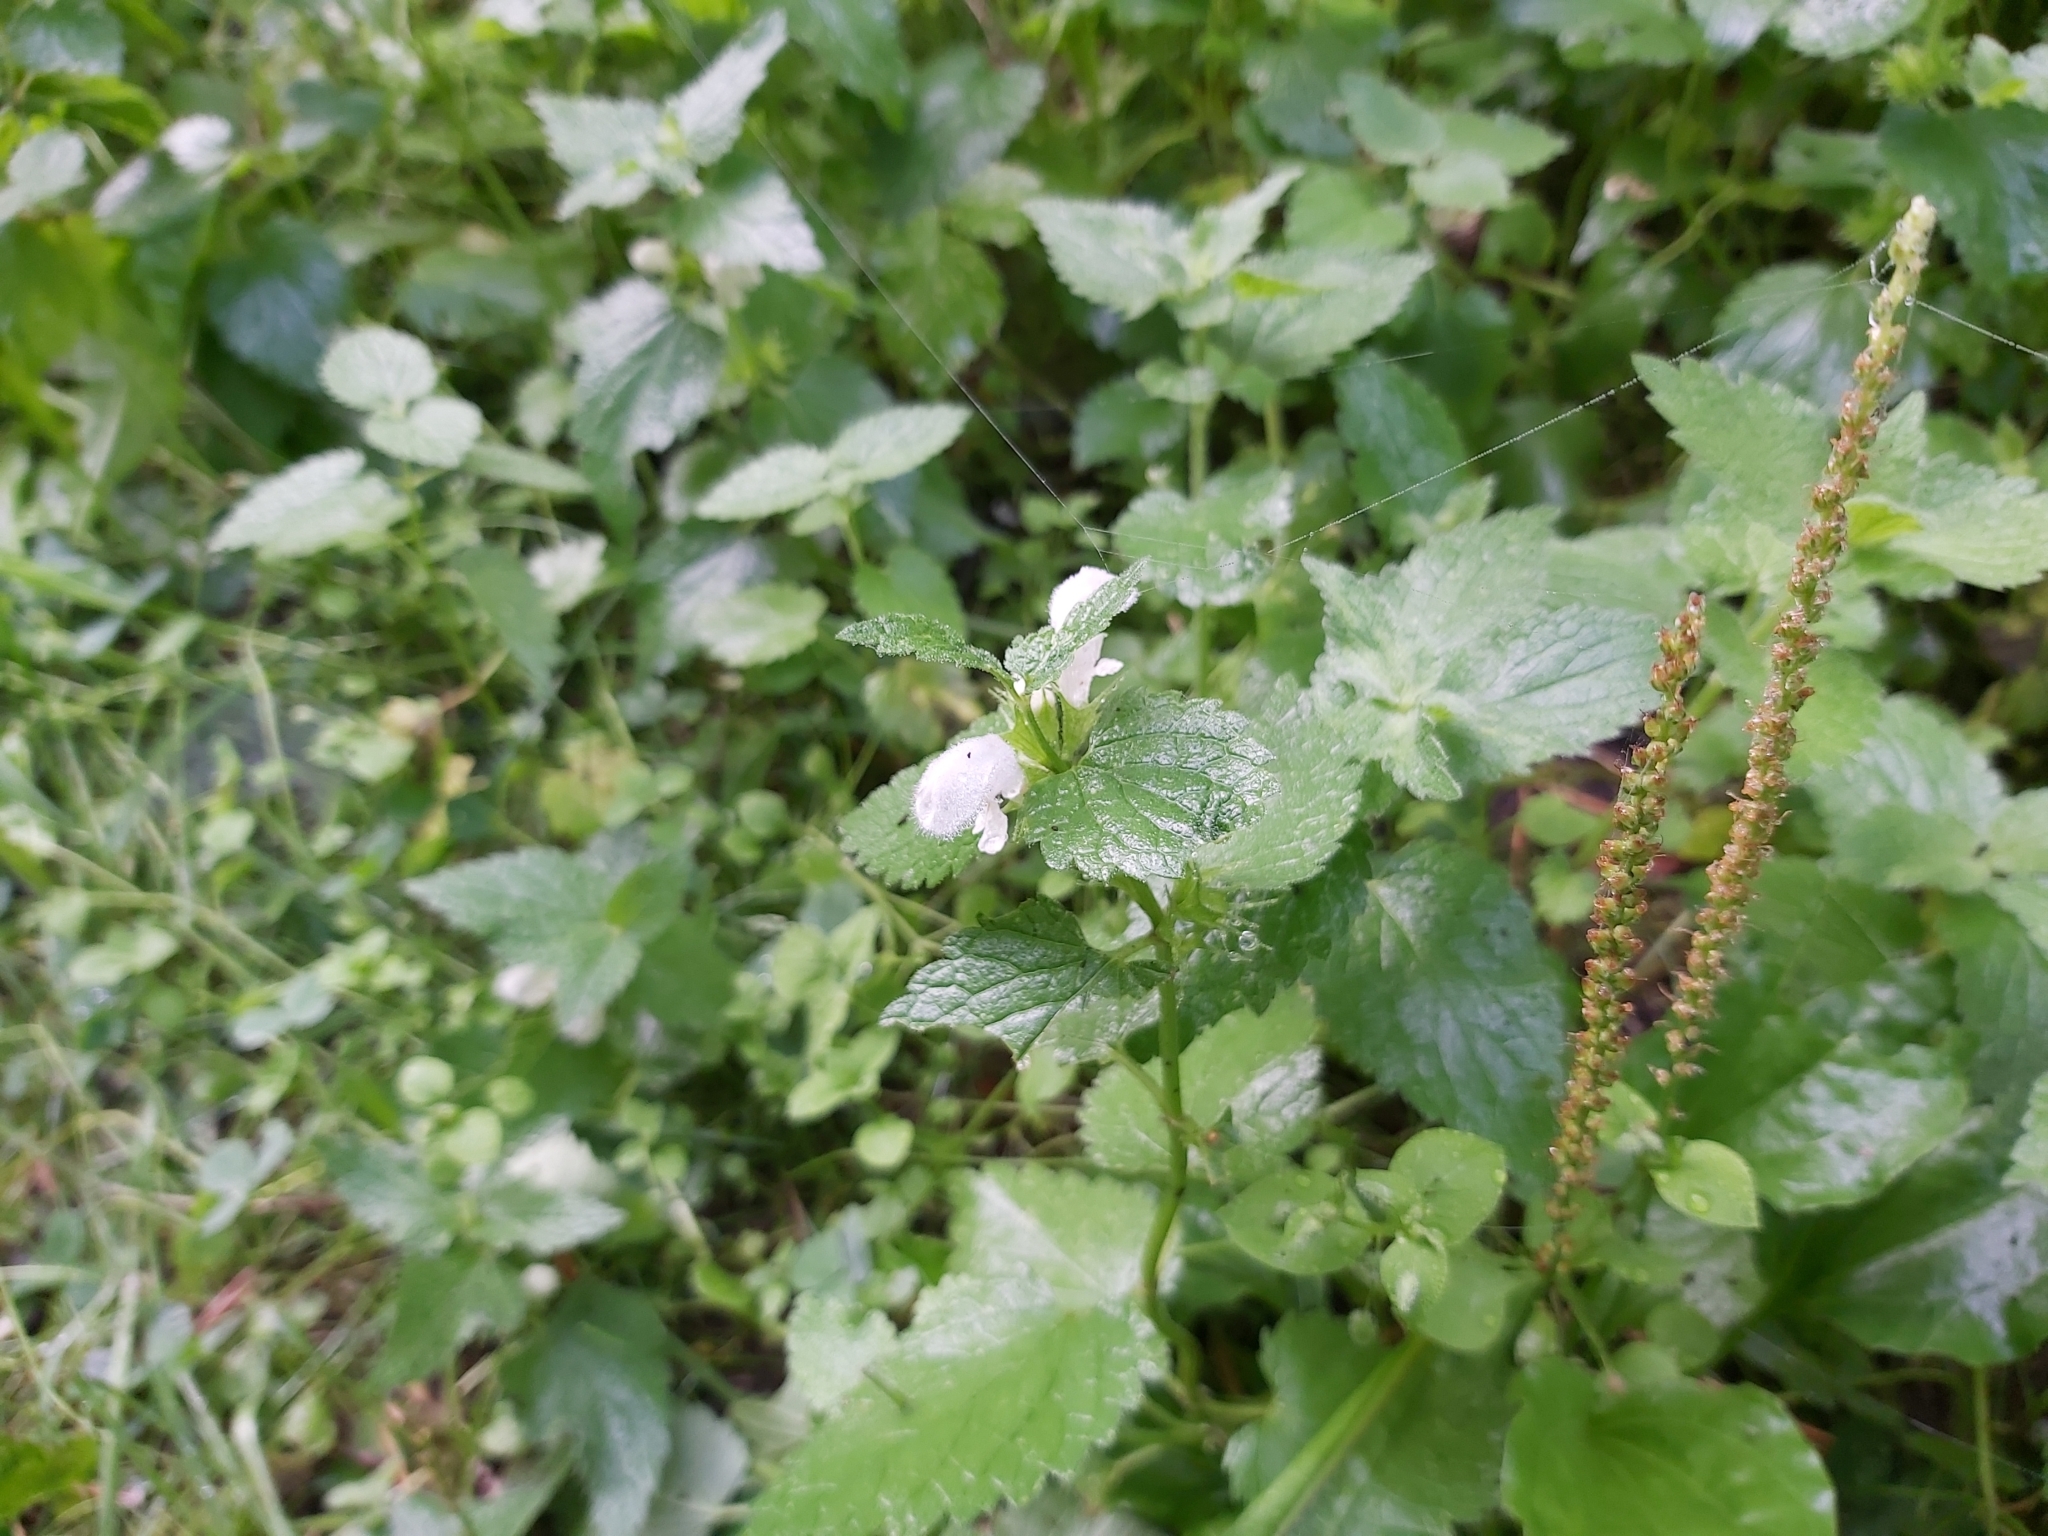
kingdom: Plantae
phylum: Tracheophyta
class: Magnoliopsida
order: Lamiales
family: Lamiaceae
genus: Lamium
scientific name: Lamium album
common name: White dead-nettle
